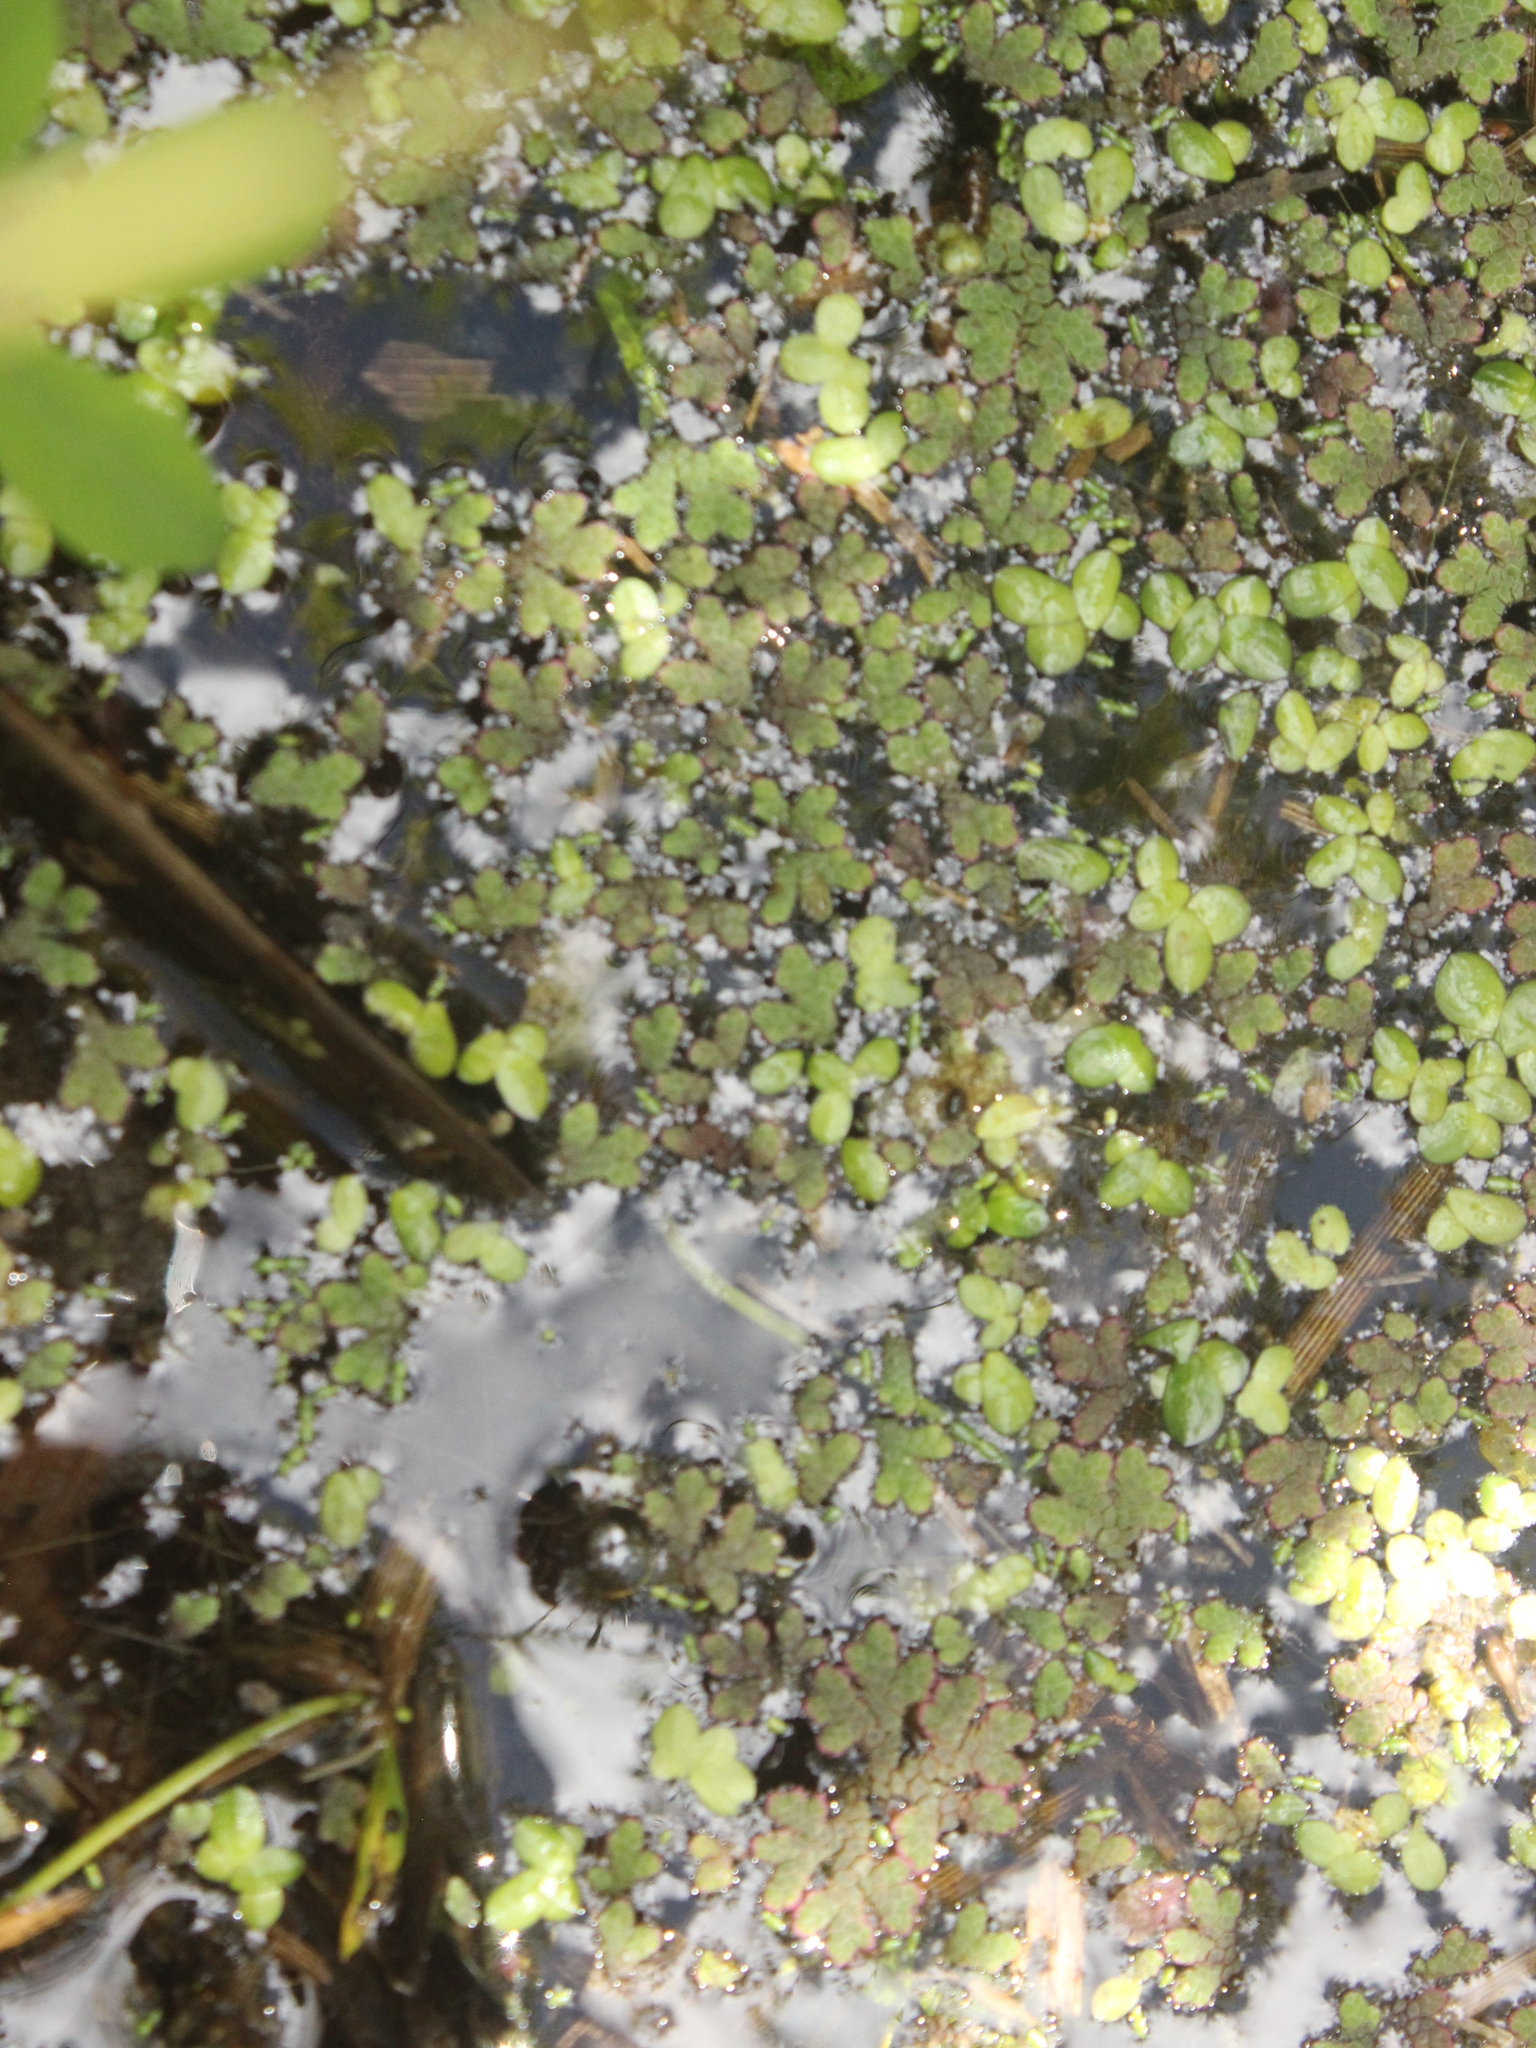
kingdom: Plantae
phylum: Tracheophyta
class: Polypodiopsida
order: Salviniales
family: Salviniaceae
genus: Azolla
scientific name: Azolla rubra
